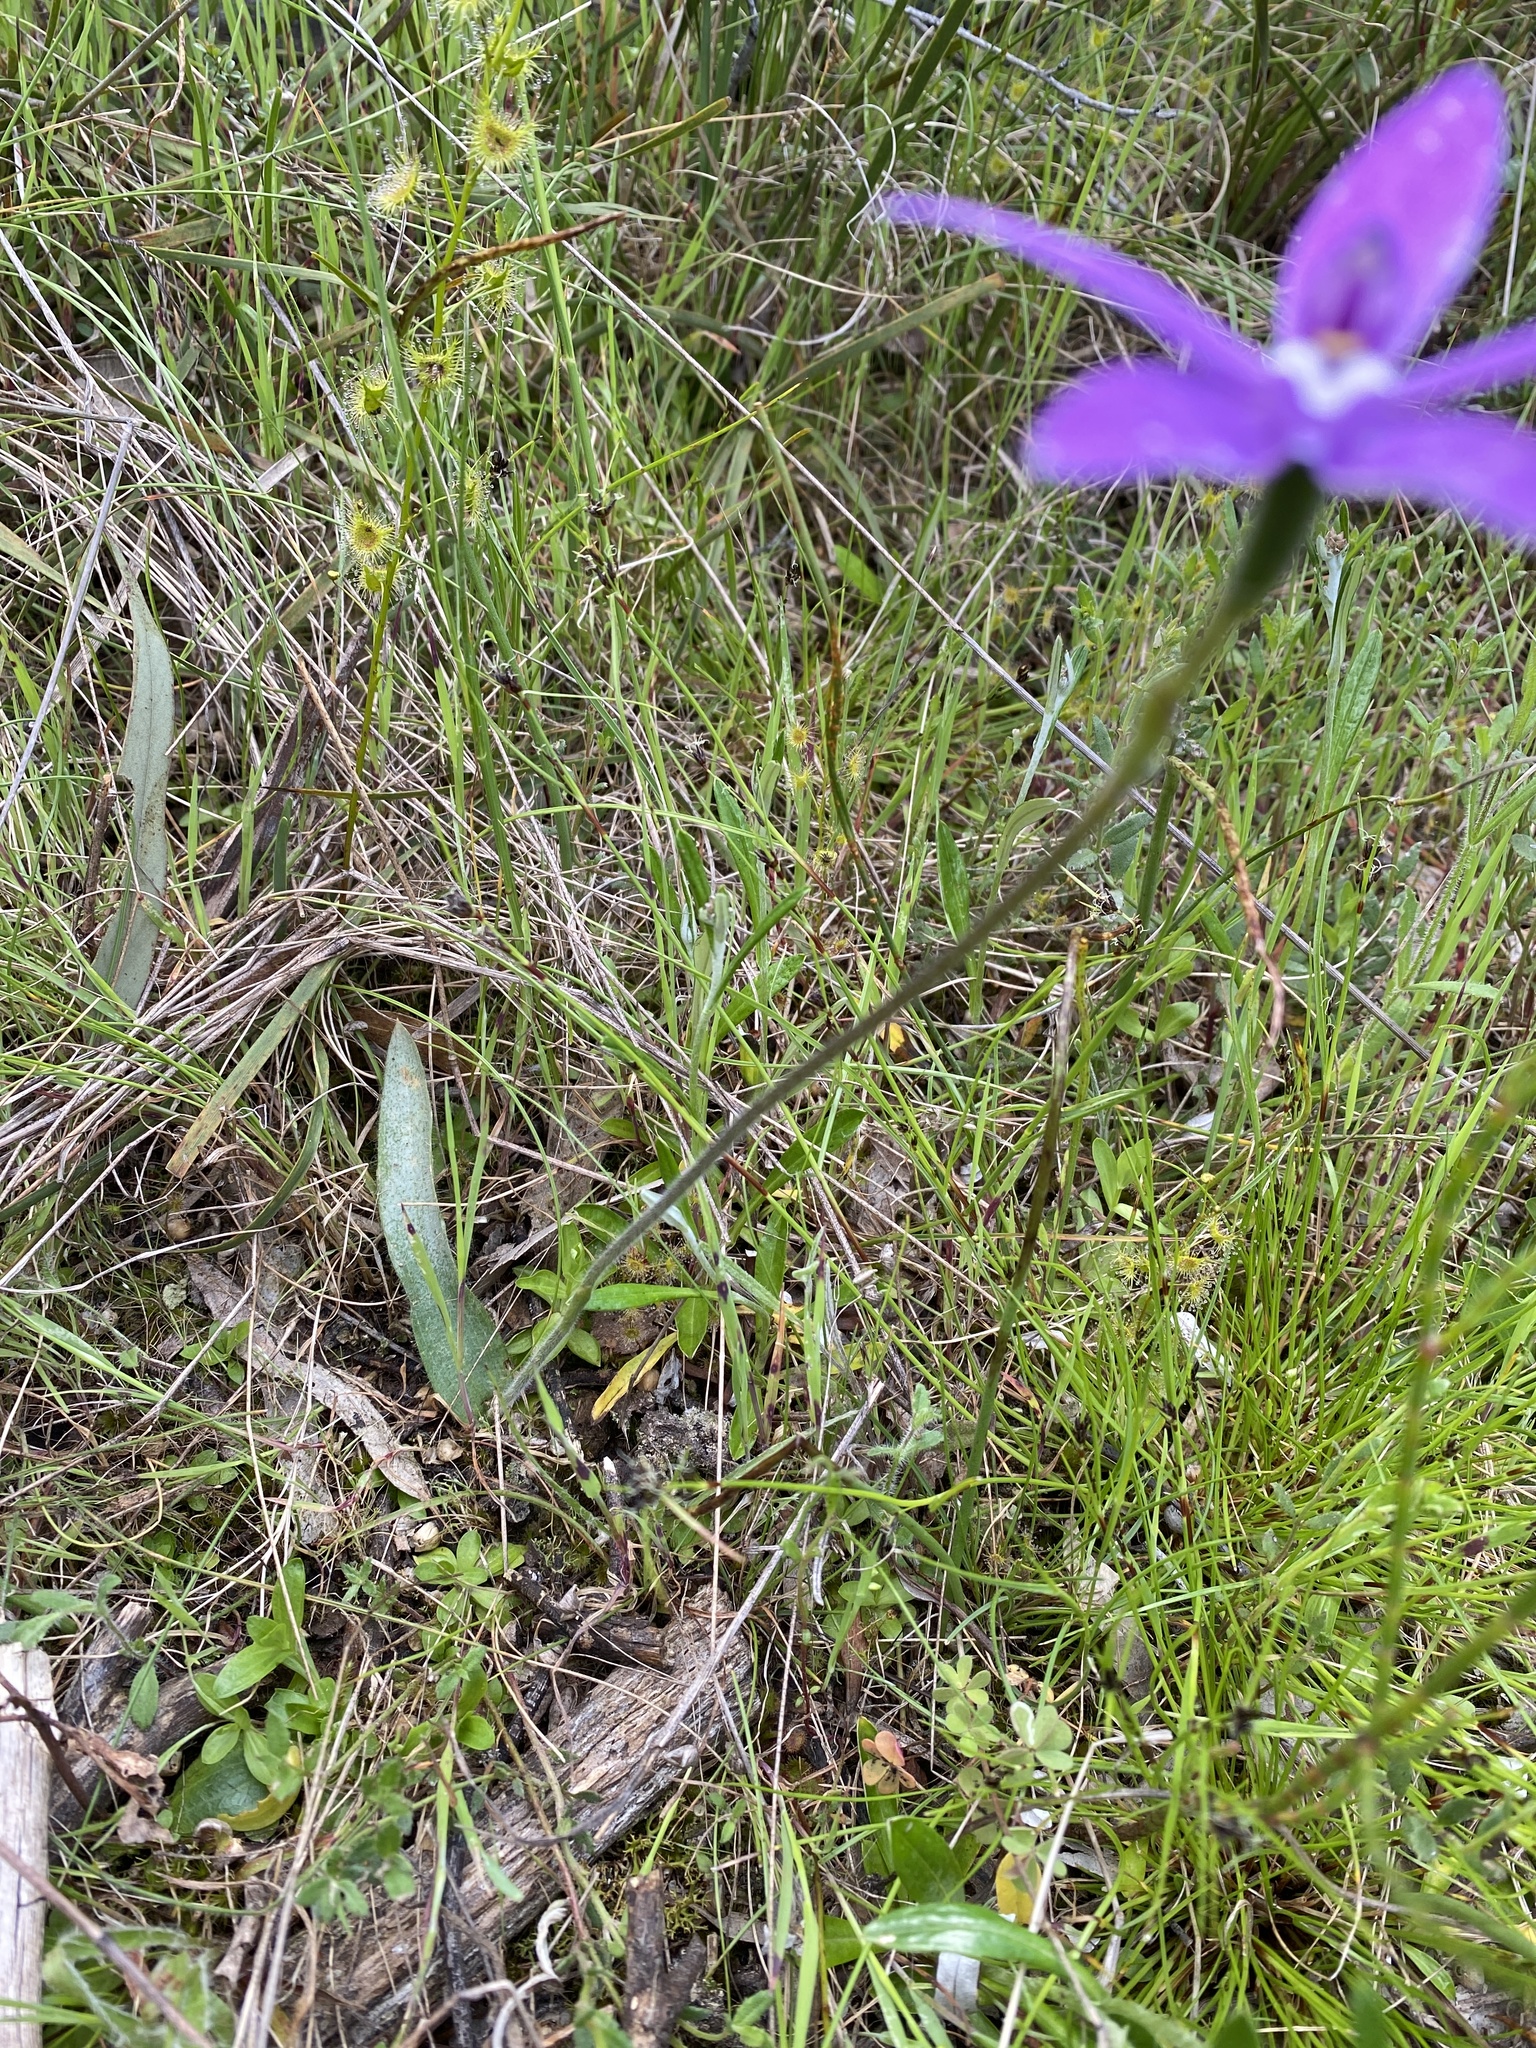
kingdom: Plantae
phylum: Tracheophyta
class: Liliopsida
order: Asparagales
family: Orchidaceae
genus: Caladenia
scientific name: Caladenia major
